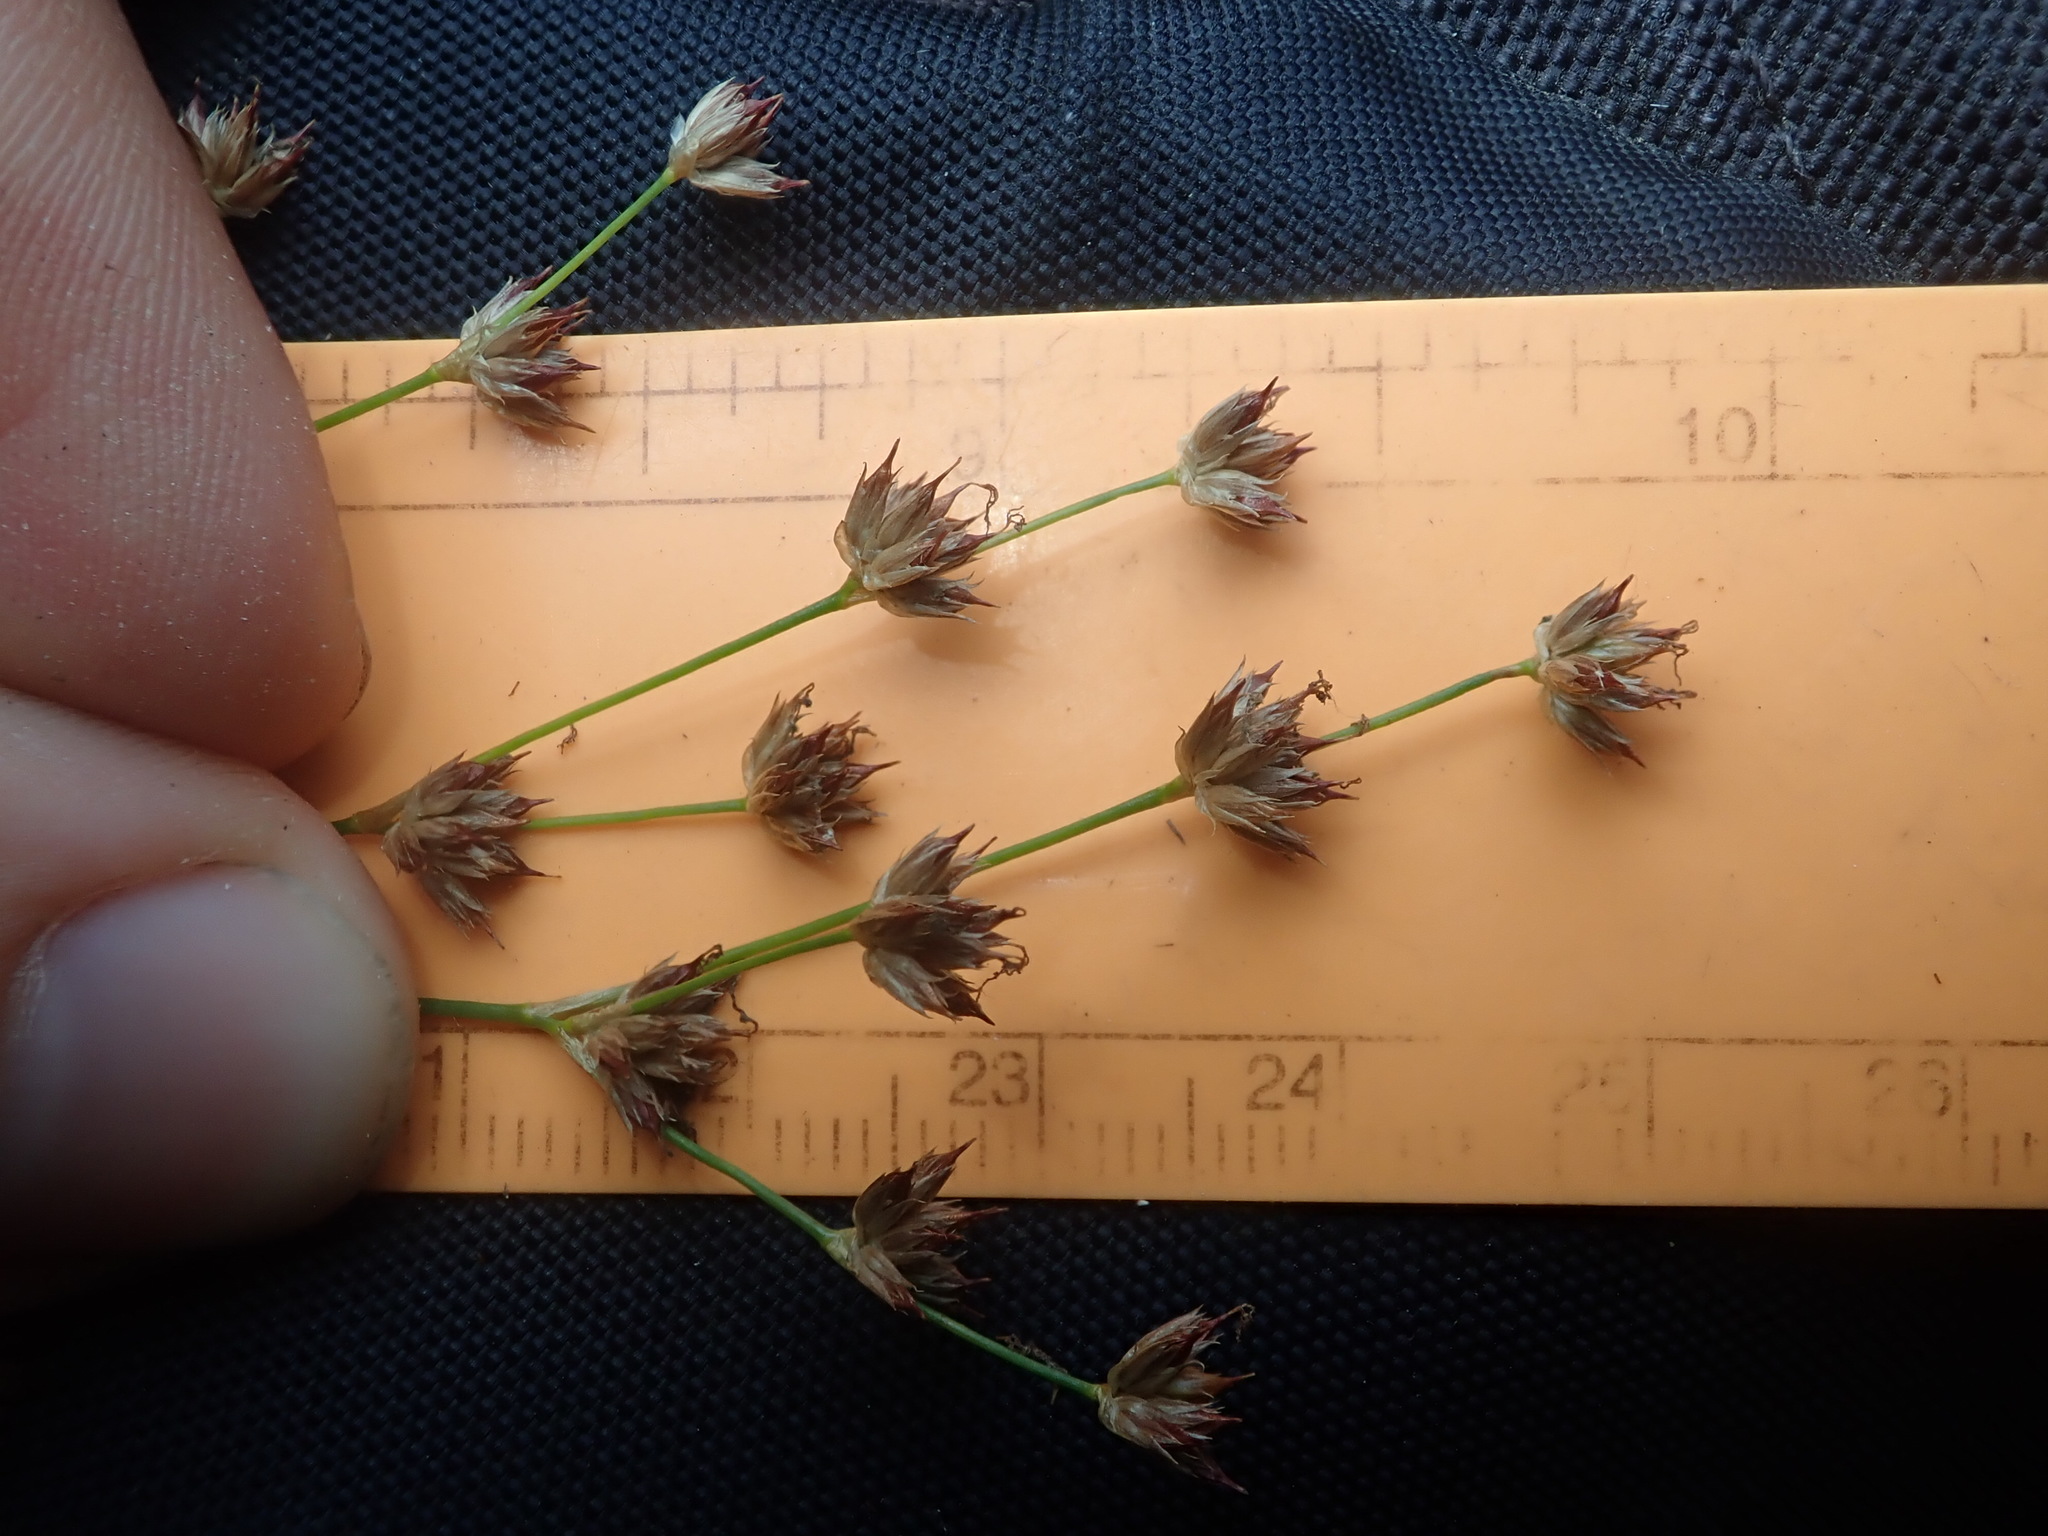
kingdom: Plantae
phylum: Tracheophyta
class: Liliopsida
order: Poales
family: Juncaceae
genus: Juncus
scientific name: Juncus oxymeris
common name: Pointed rush
